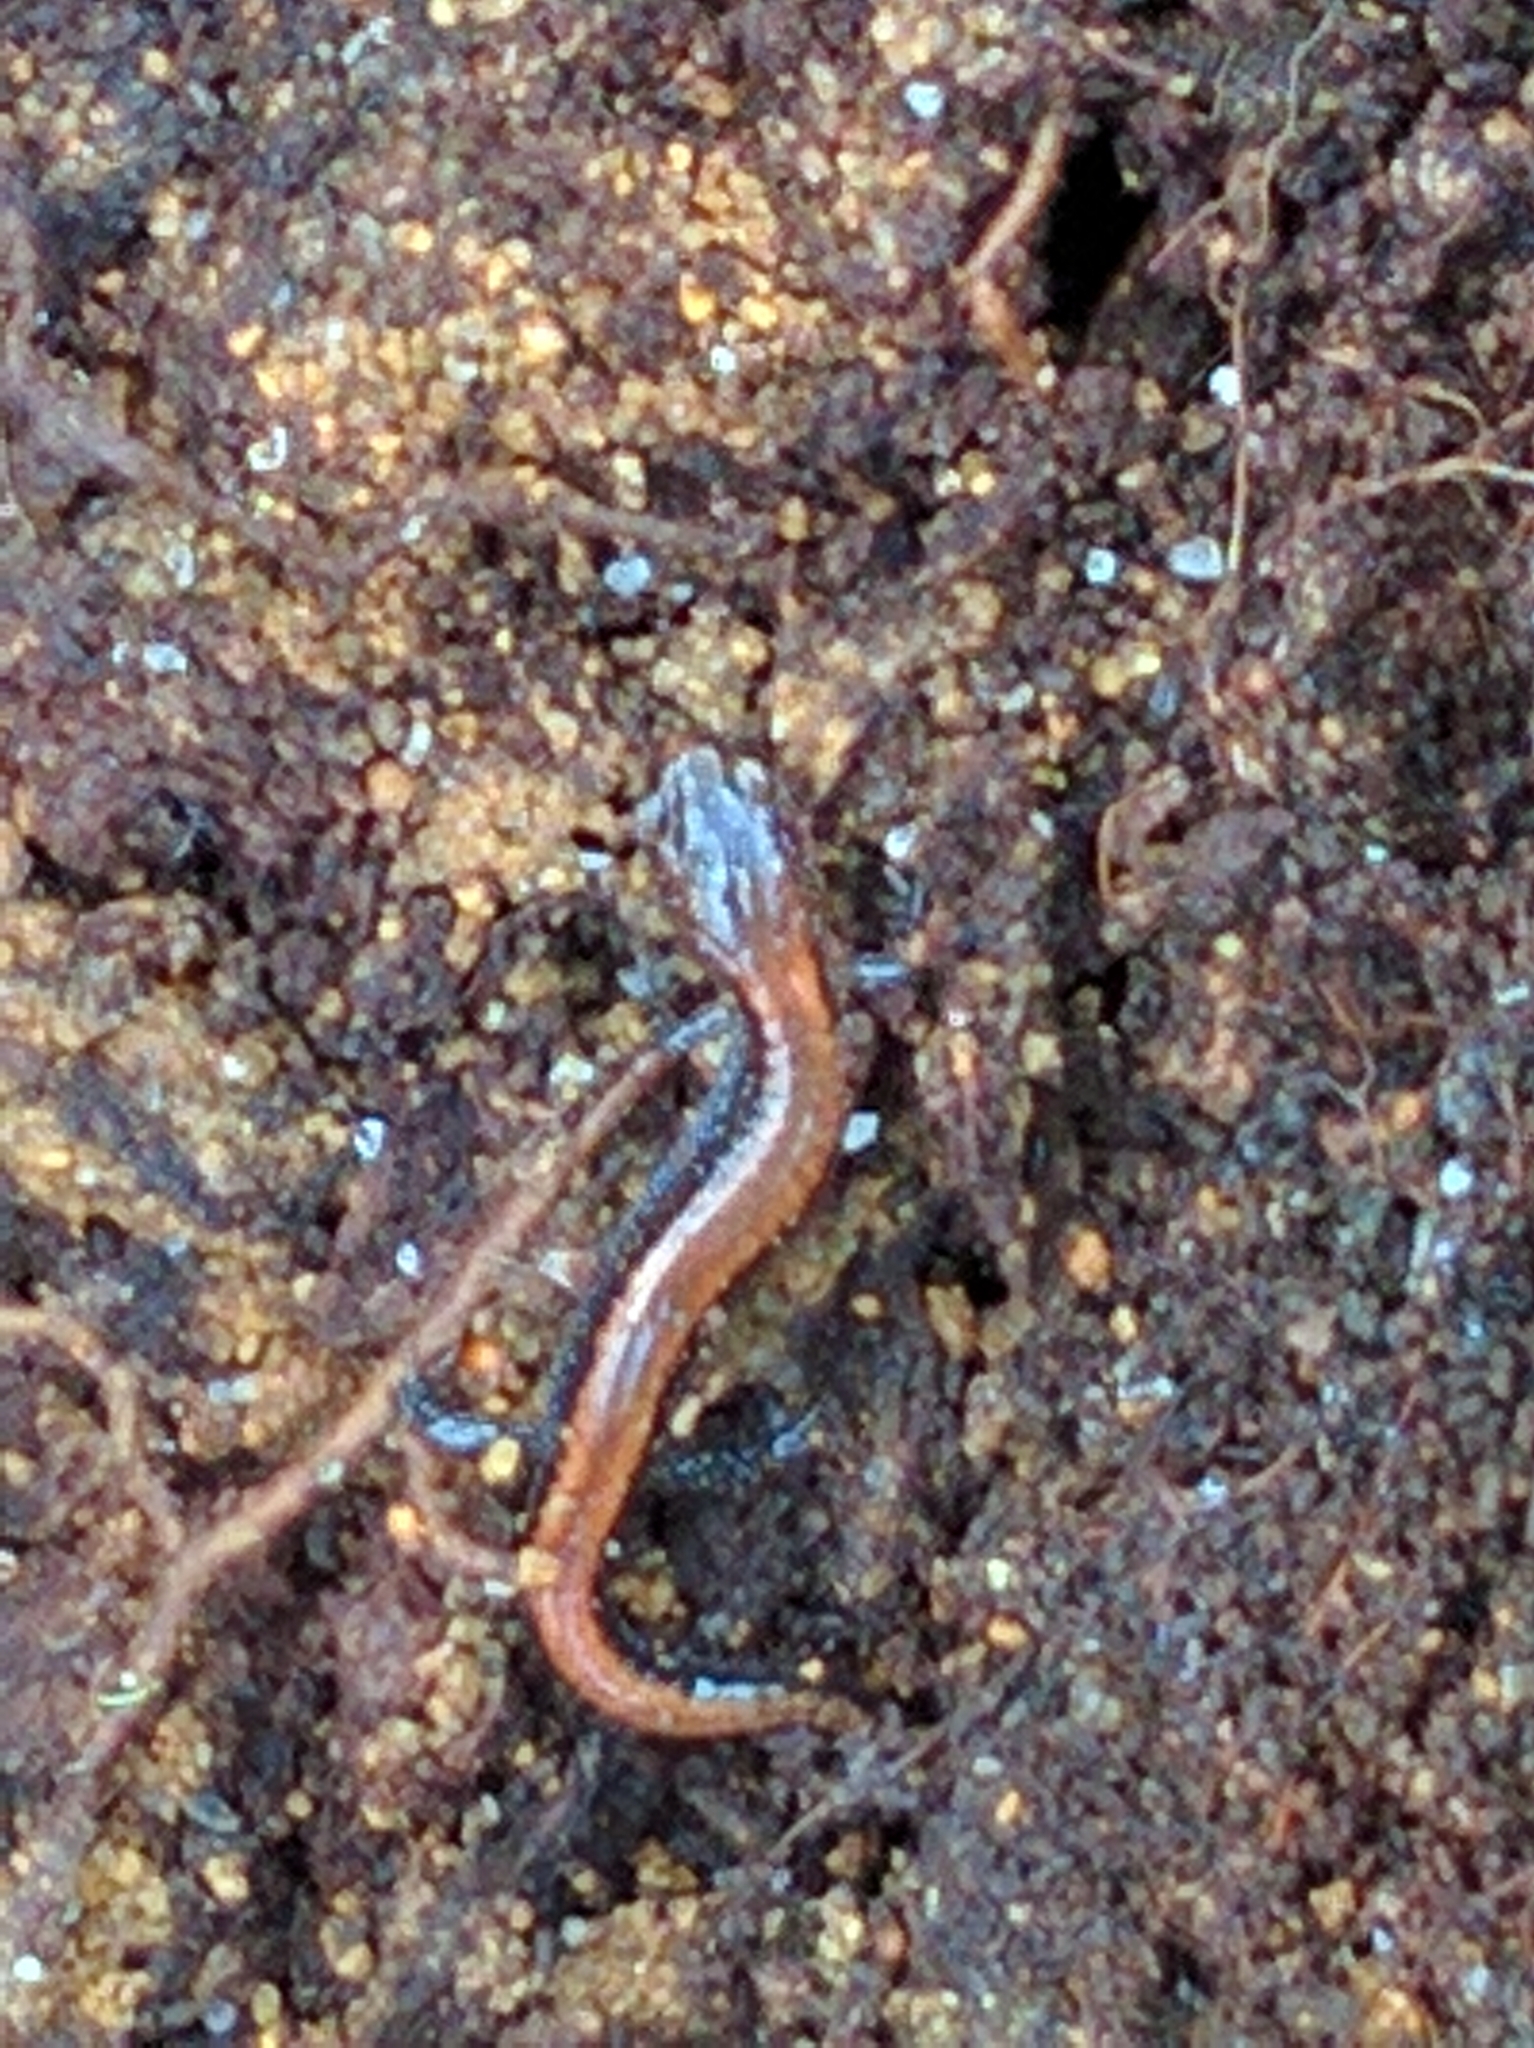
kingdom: Animalia
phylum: Chordata
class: Amphibia
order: Caudata
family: Plethodontidae
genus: Plethodon
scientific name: Plethodon cinereus
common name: Redback salamander
